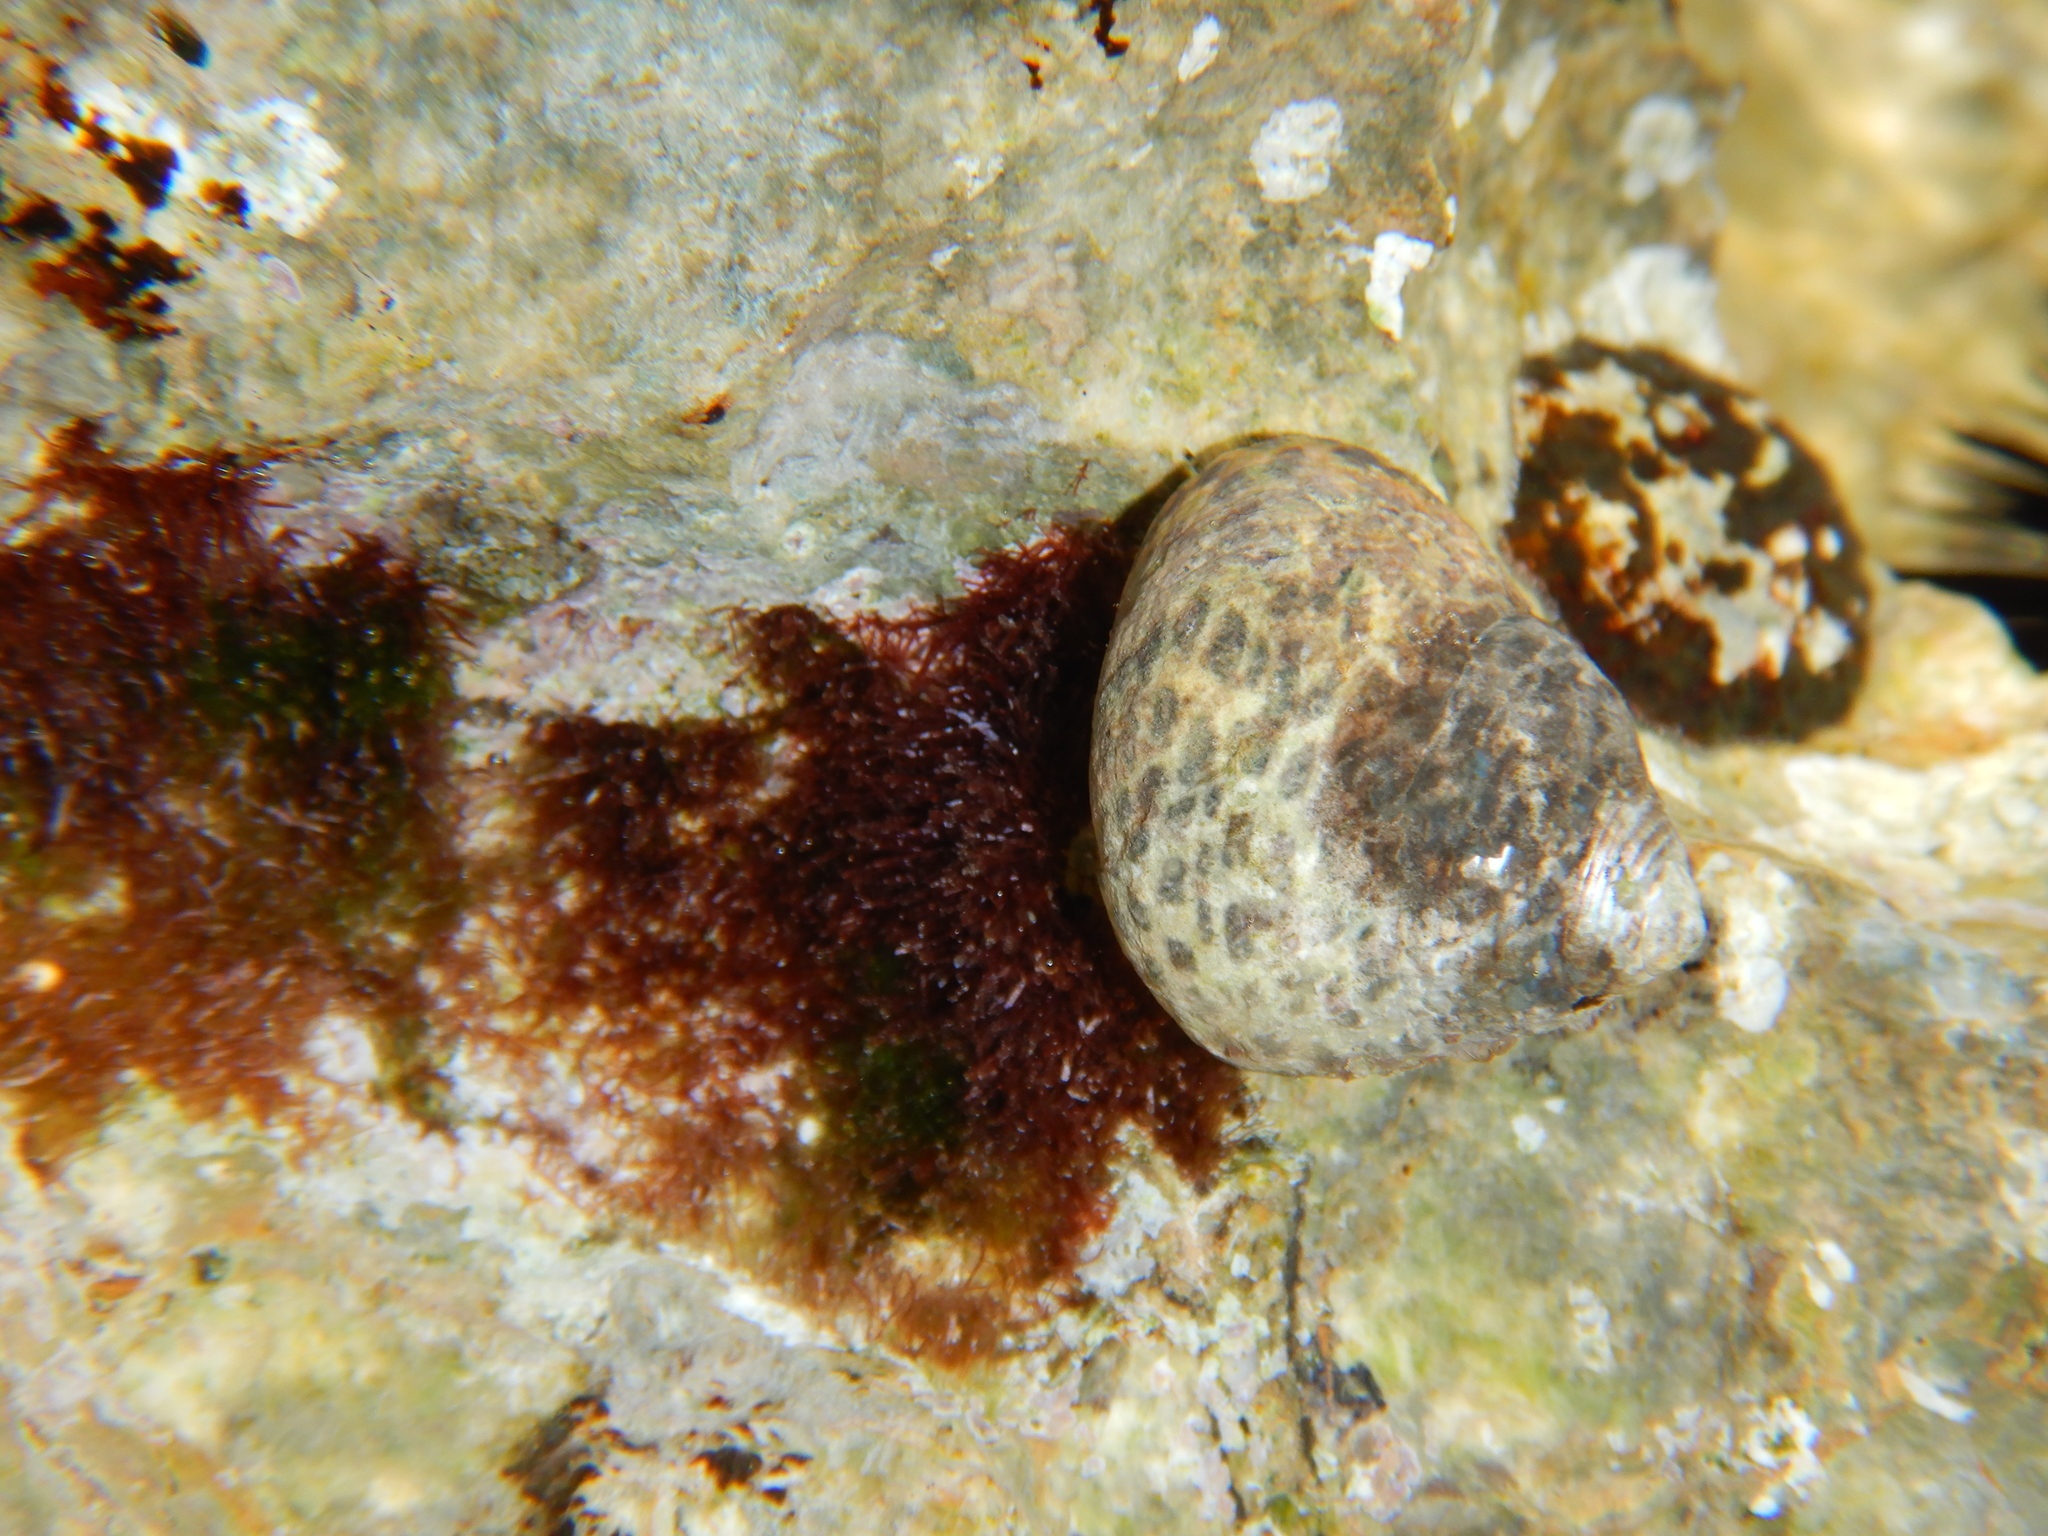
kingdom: Animalia
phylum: Mollusca
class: Gastropoda
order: Trochida
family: Trochidae
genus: Phorcus
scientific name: Phorcus turbinatus
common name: Turbinate monodont
